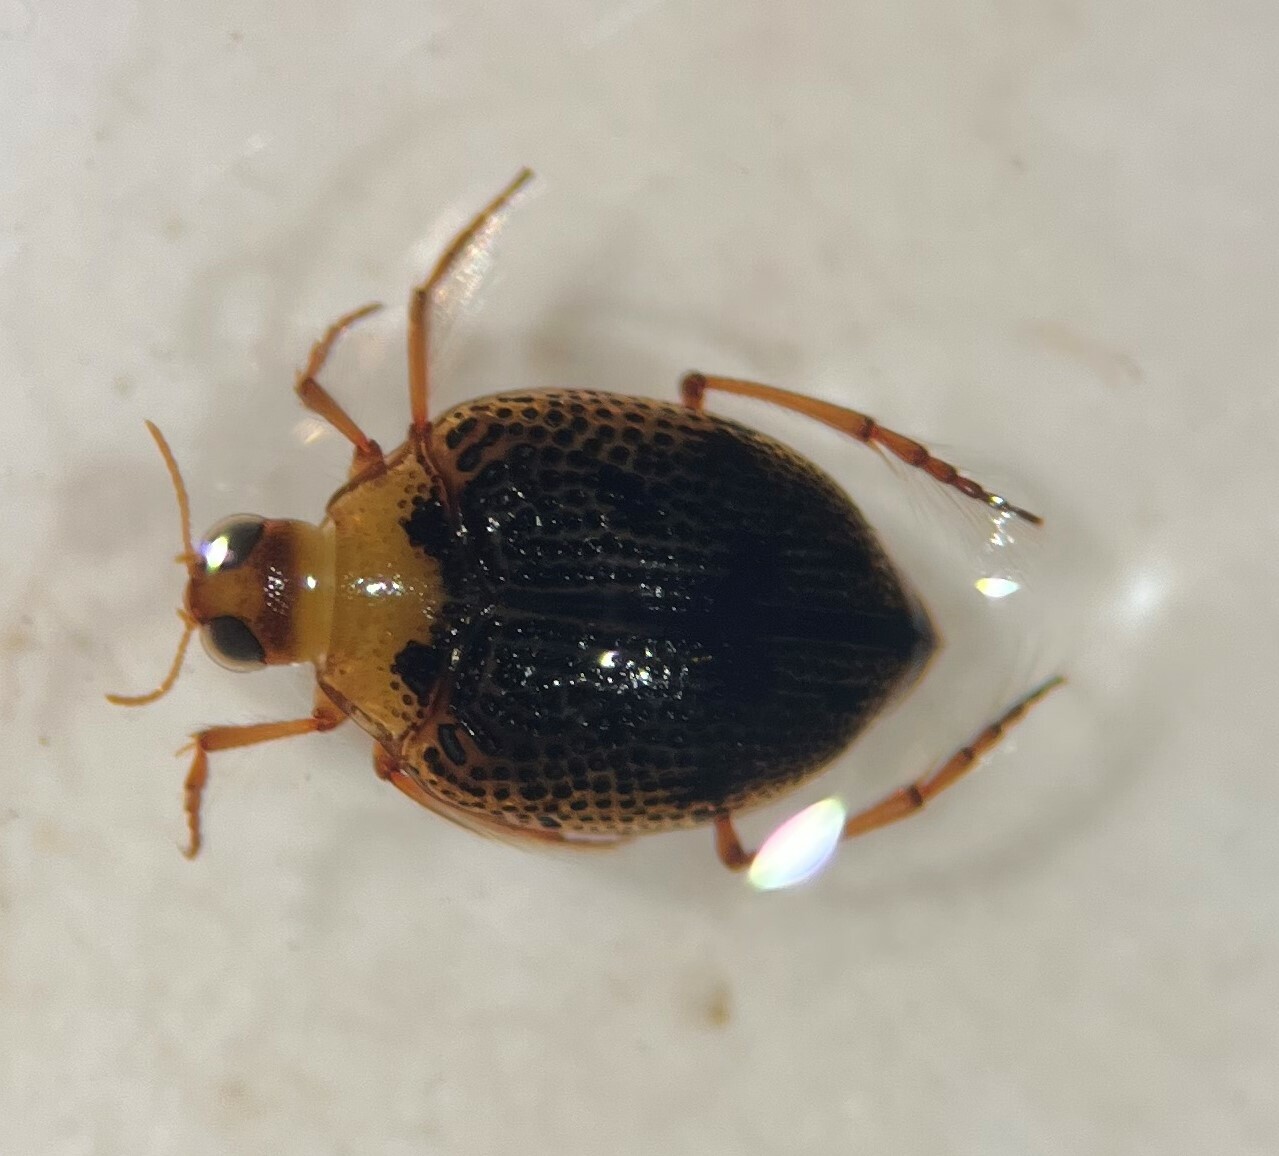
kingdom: Animalia
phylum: Arthropoda
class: Insecta
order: Coleoptera
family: Haliplidae
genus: Peltodytes
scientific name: Peltodytes tortulosus
